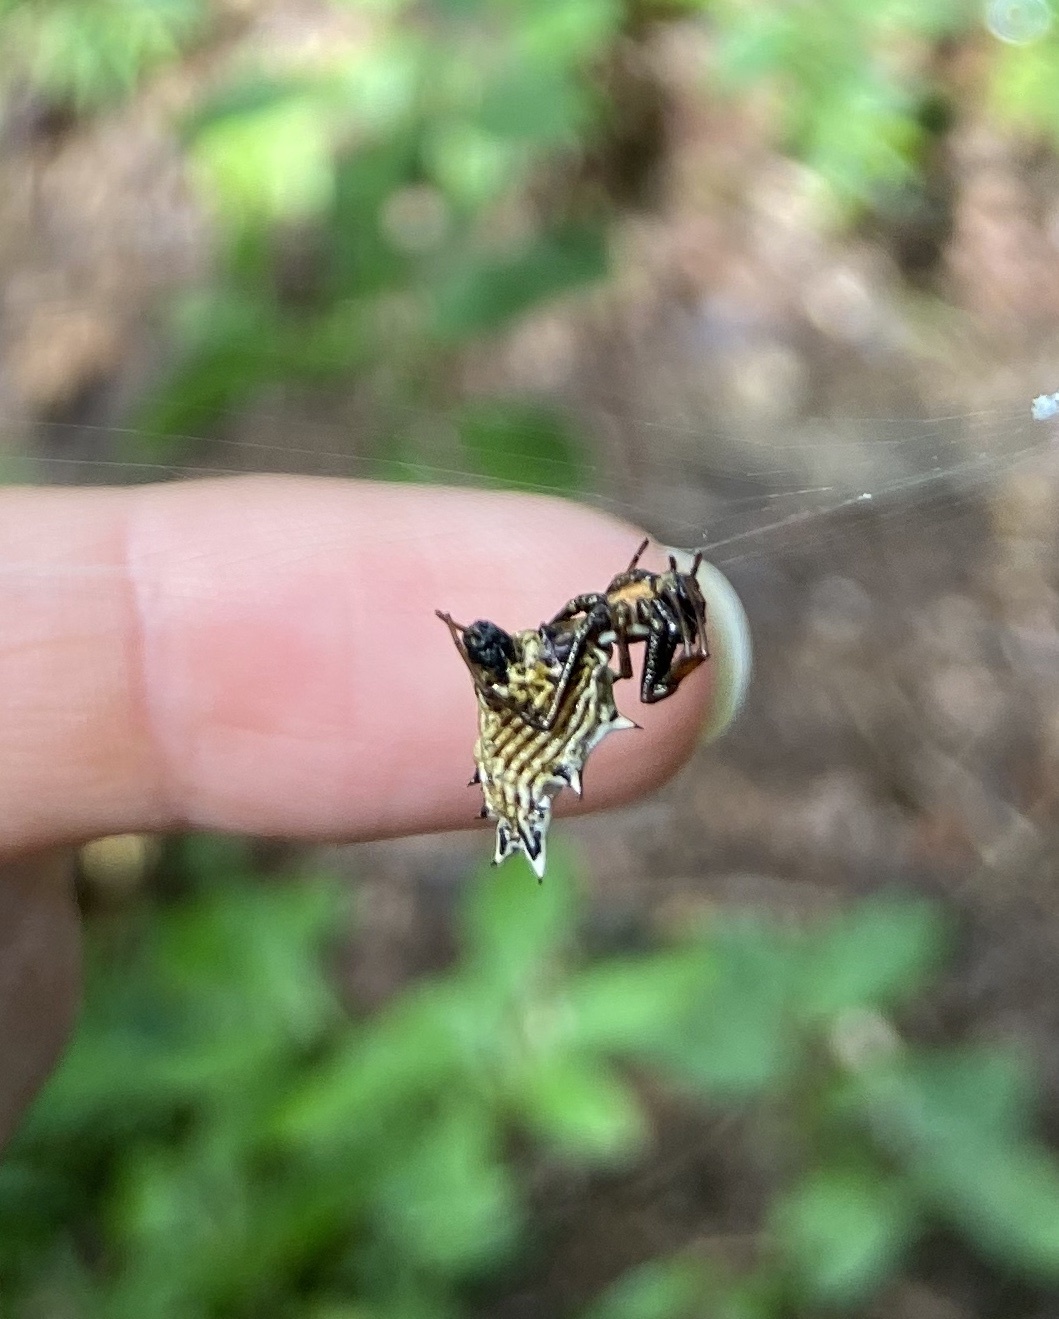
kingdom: Animalia
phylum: Arthropoda
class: Arachnida
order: Araneae
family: Araneidae
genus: Micrathena
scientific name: Micrathena gracilis
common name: Orb weavers
